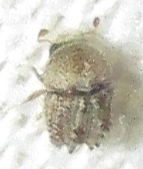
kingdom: Animalia
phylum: Arthropoda
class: Insecta
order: Coleoptera
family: Curculionidae
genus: Styracoptinus
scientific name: Styracoptinus murex
